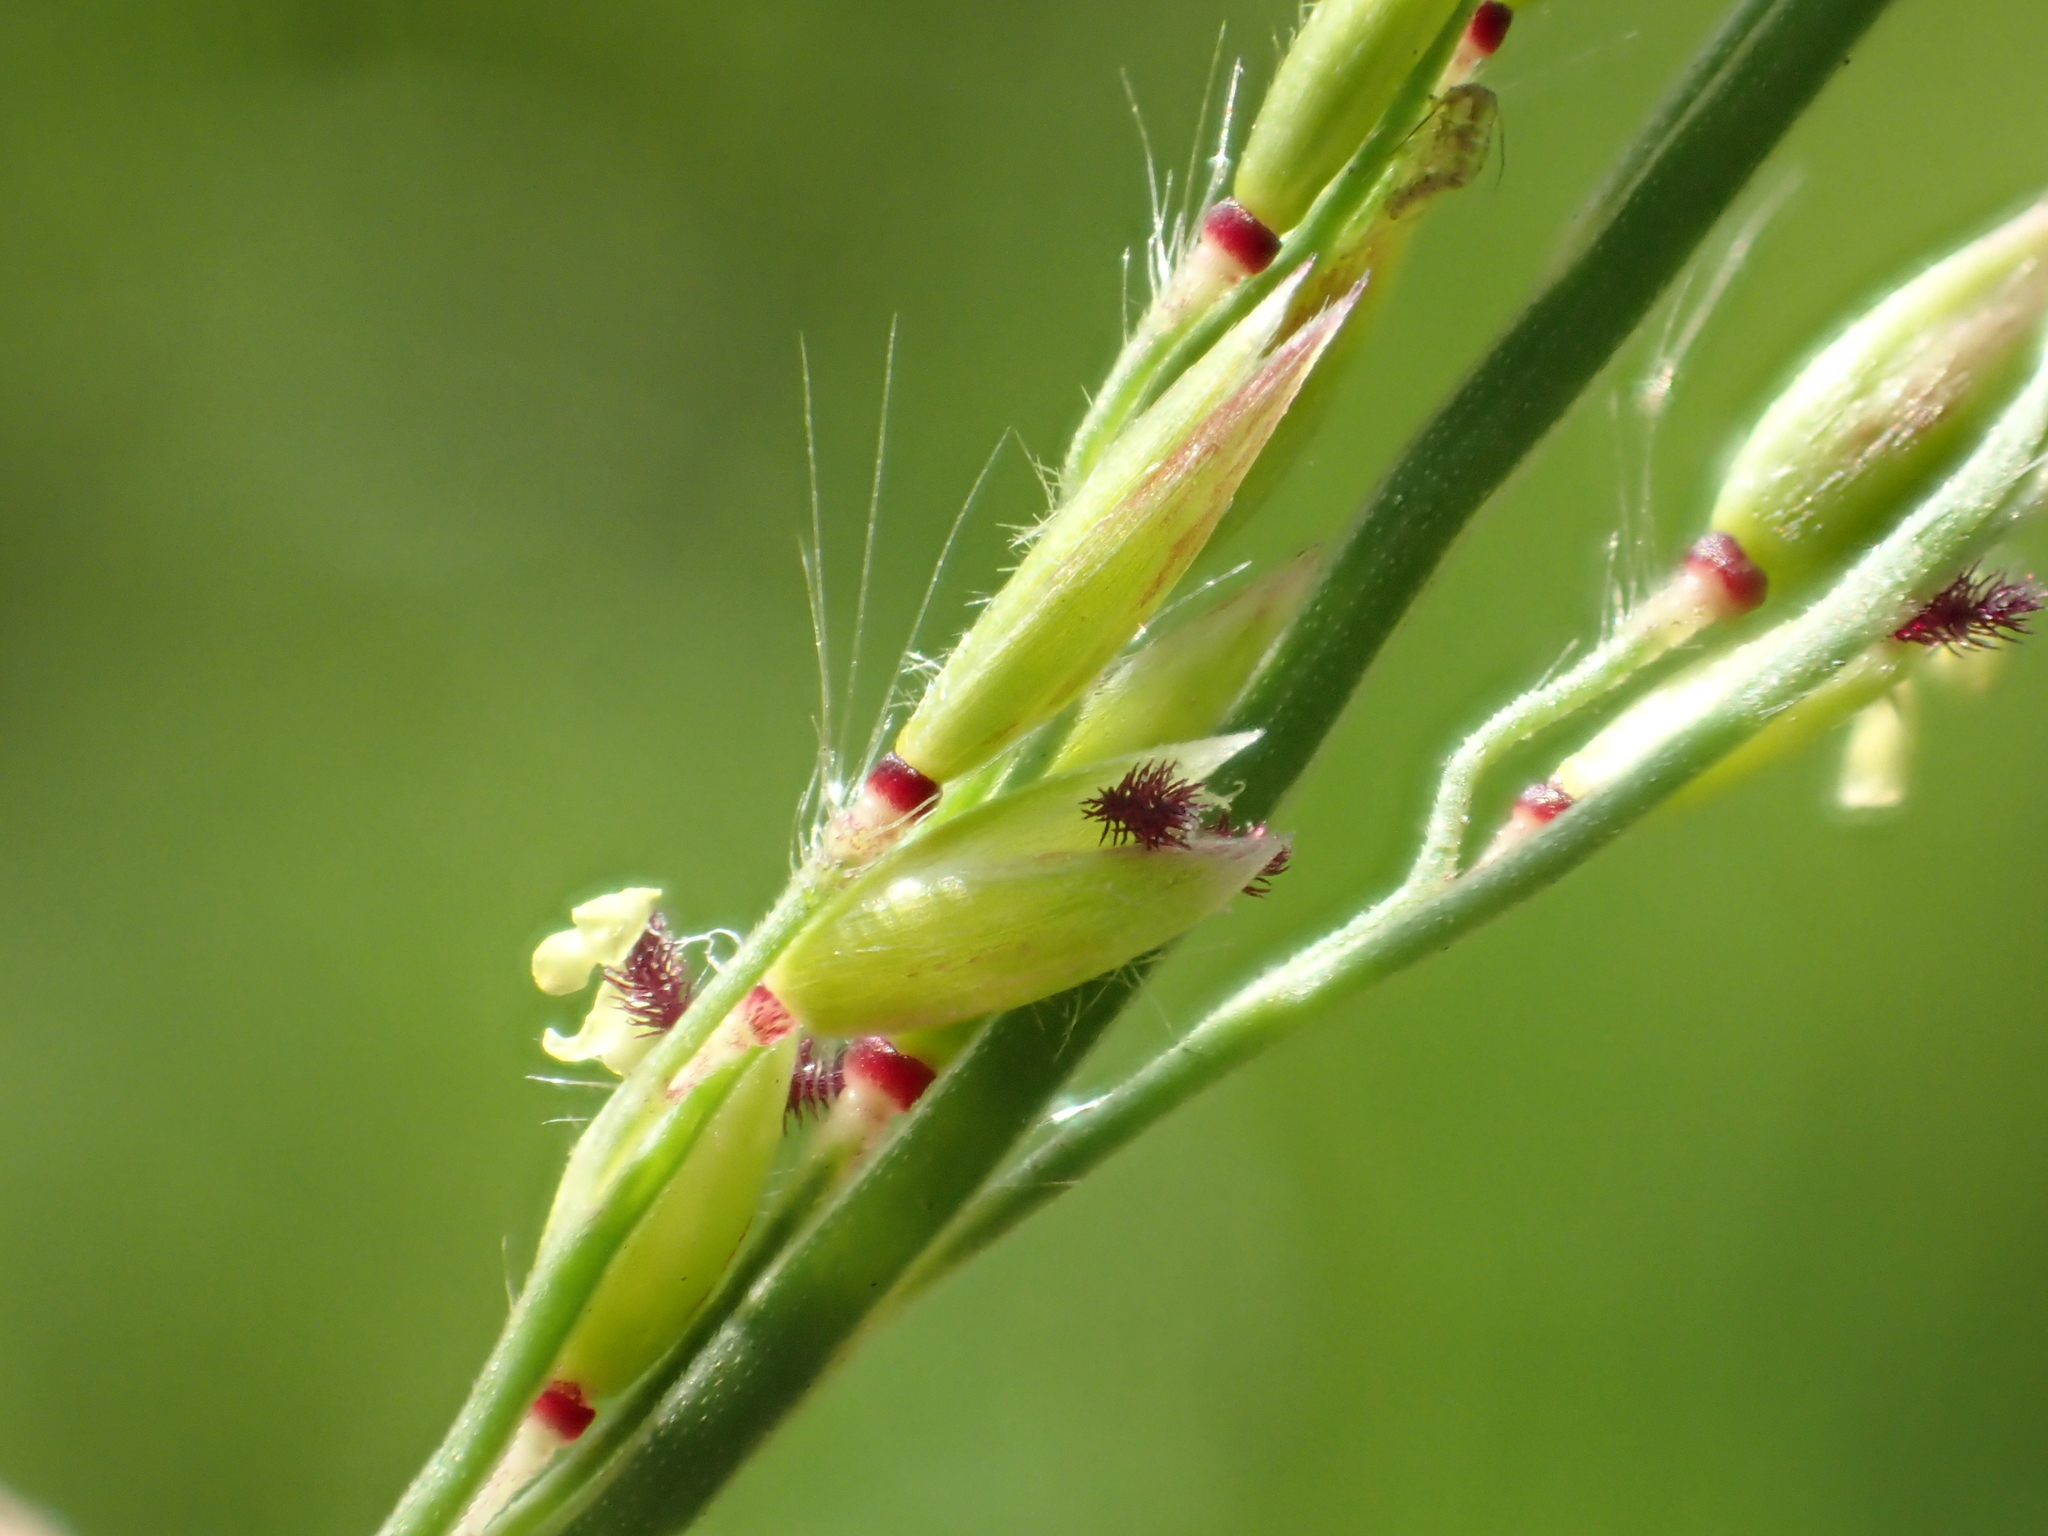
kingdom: Plantae
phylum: Tracheophyta
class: Liliopsida
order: Poales
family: Poaceae
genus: Eriochloa
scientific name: Eriochloa procera
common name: Spring grass
